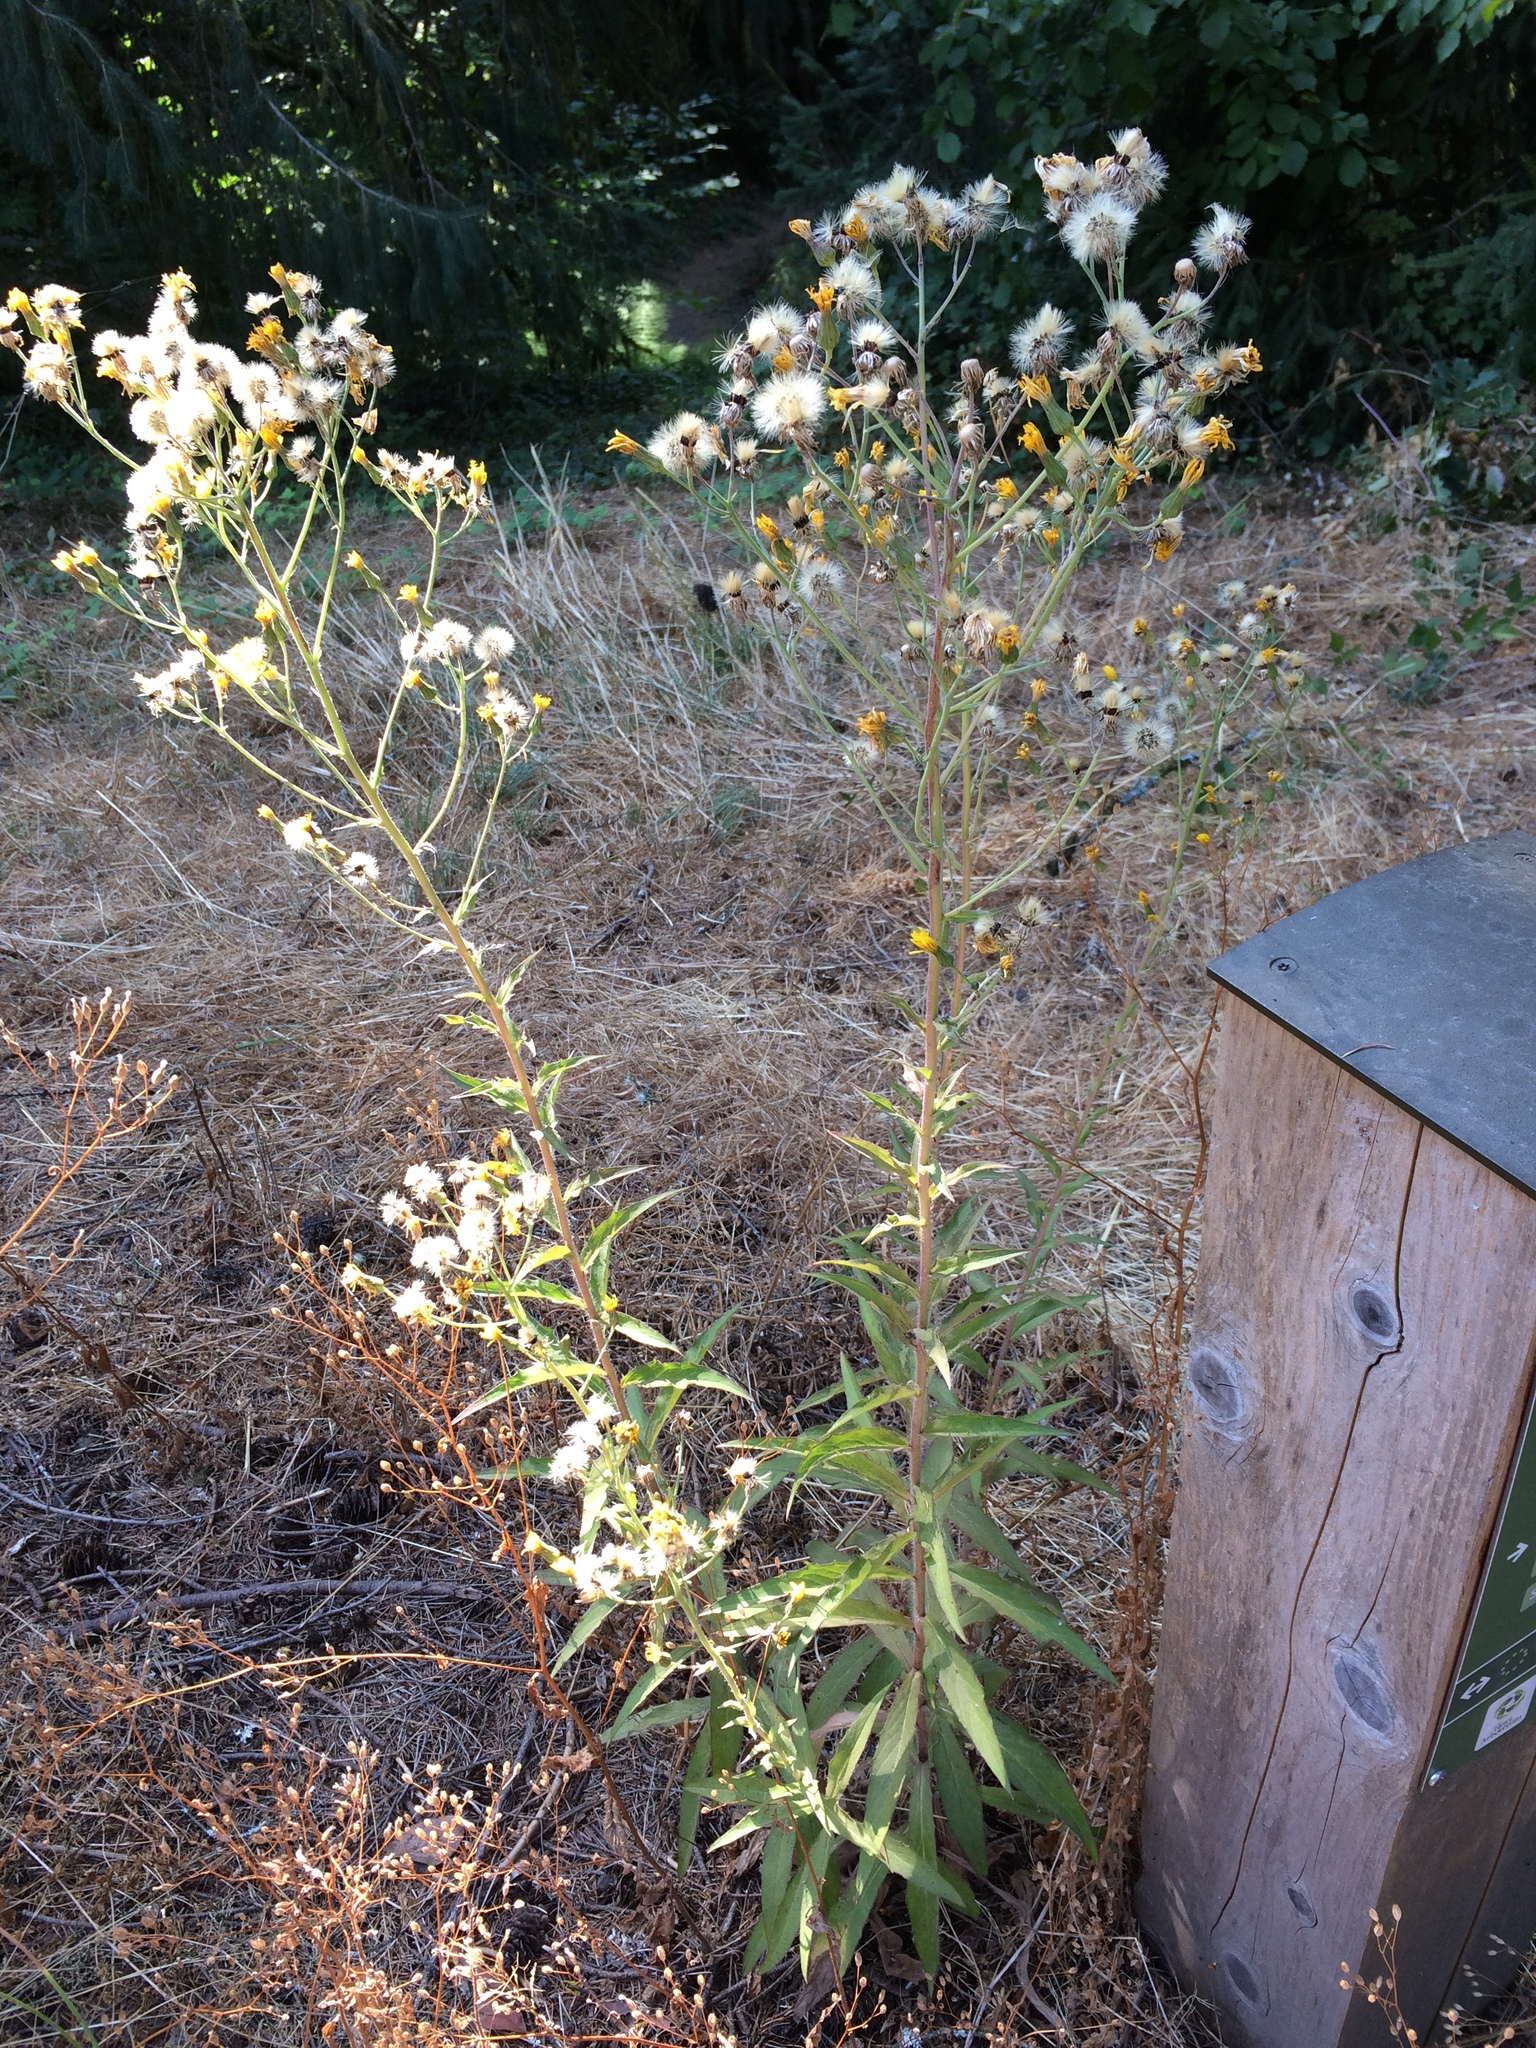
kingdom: Plantae
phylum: Tracheophyta
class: Magnoliopsida
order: Asterales
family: Asteraceae
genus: Hieracium
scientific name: Hieracium umbellatum
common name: Northern hawkweed
